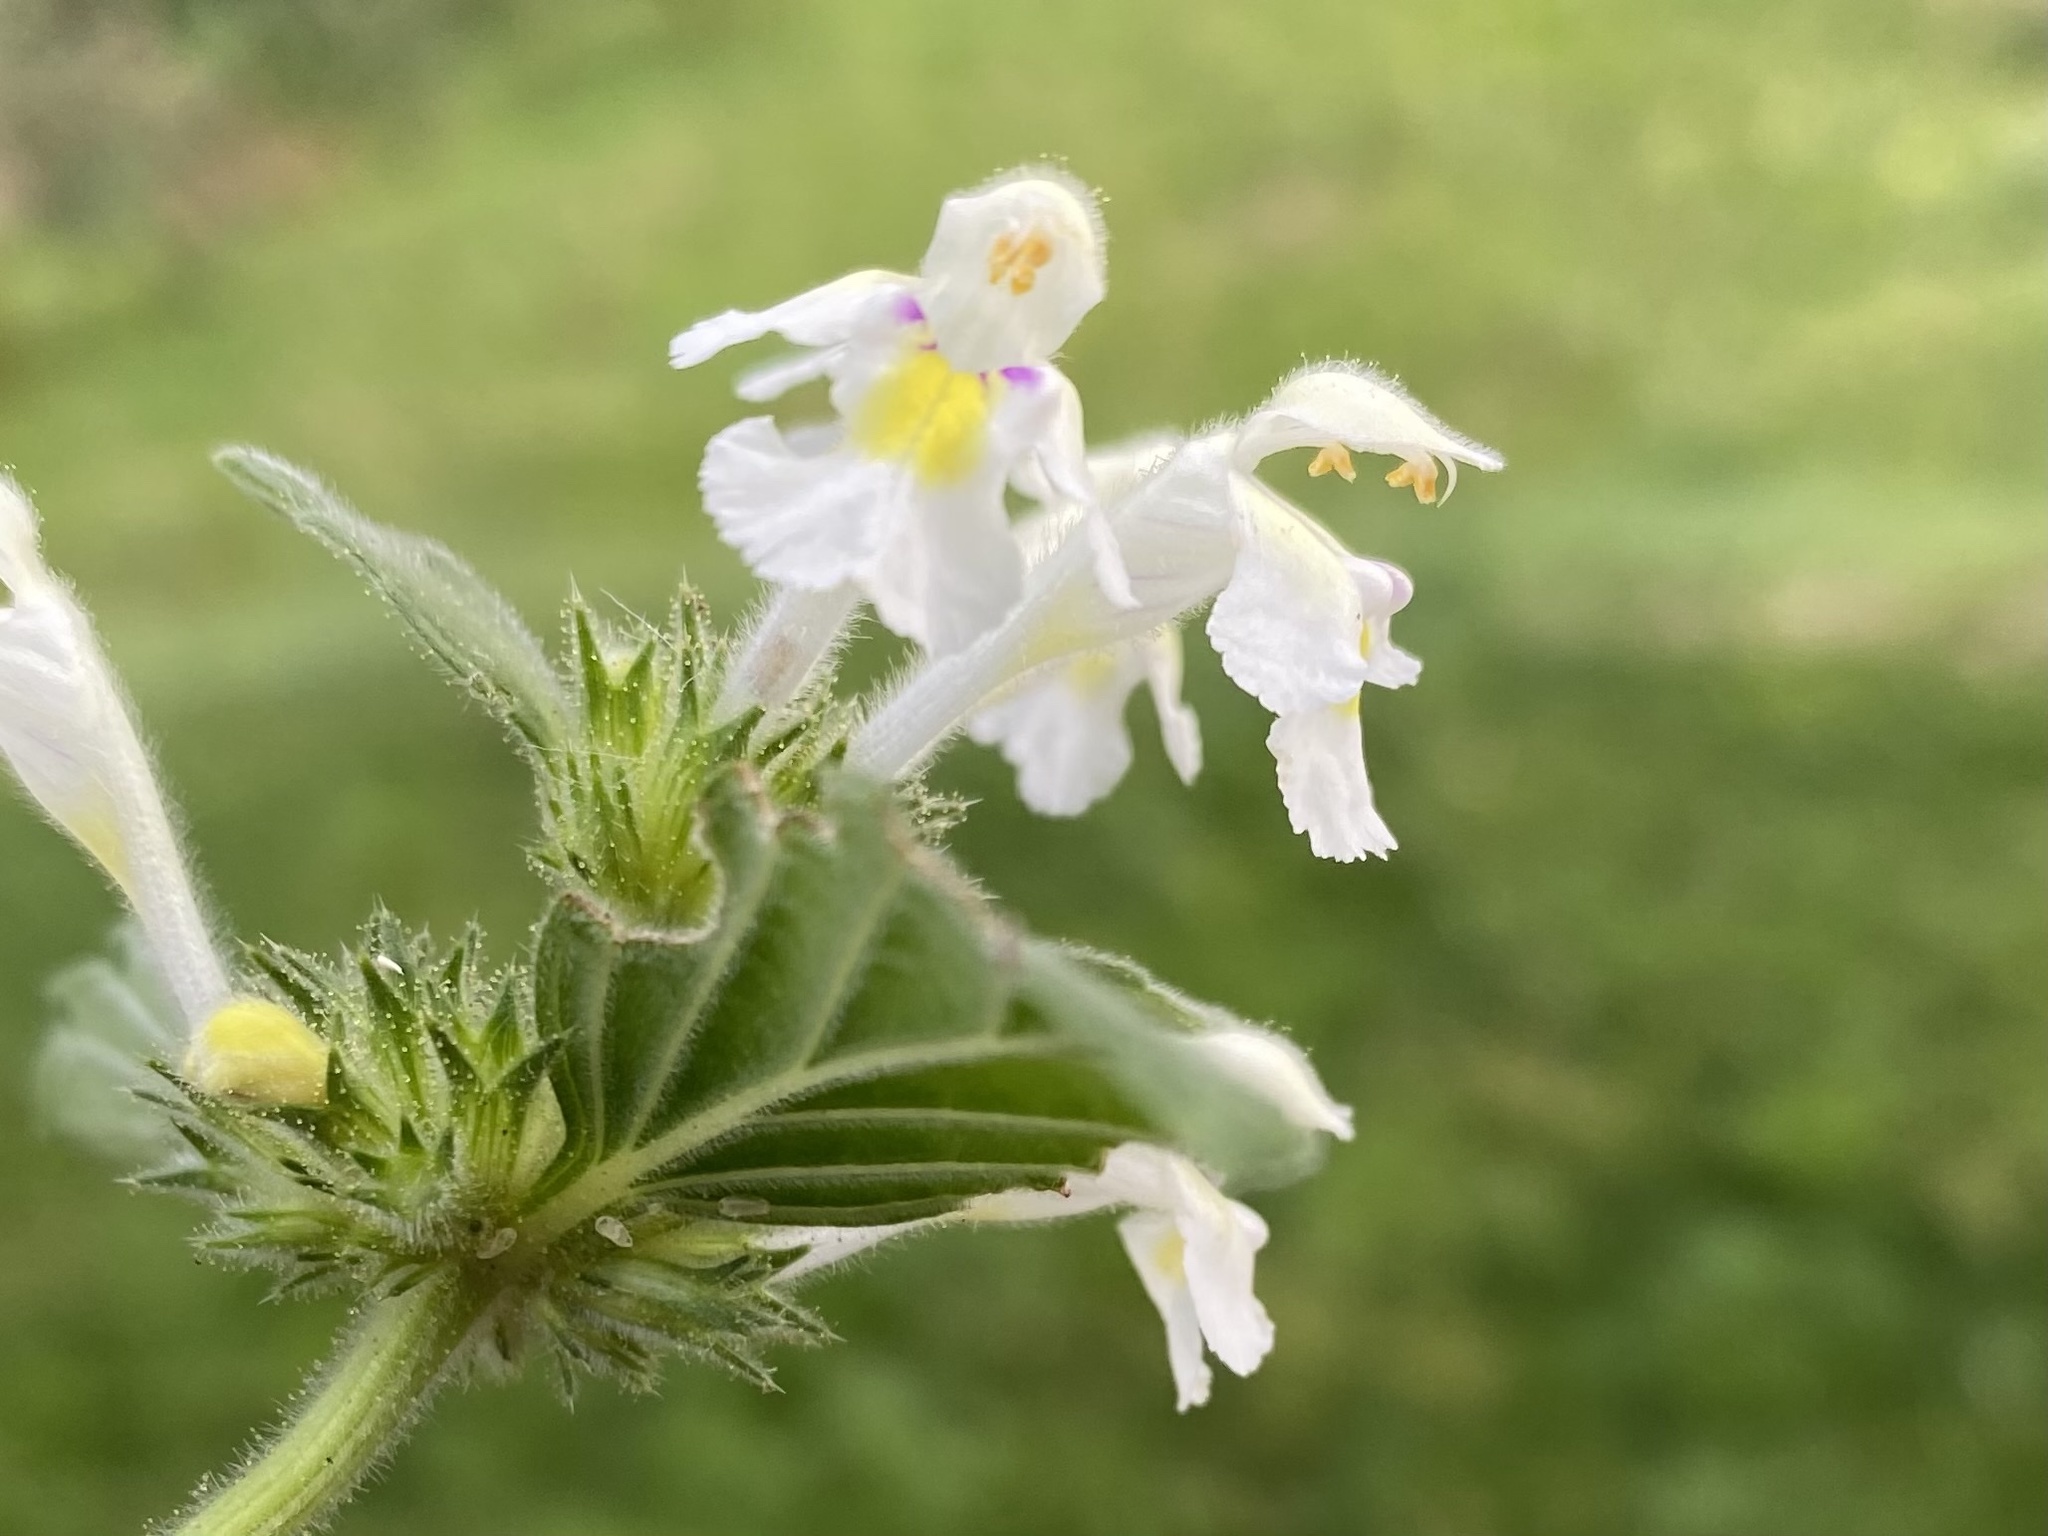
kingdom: Plantae
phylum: Tracheophyta
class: Magnoliopsida
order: Lamiales
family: Lamiaceae
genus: Galeopsis
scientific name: Galeopsis segetum
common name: Downy hemp-nettle
